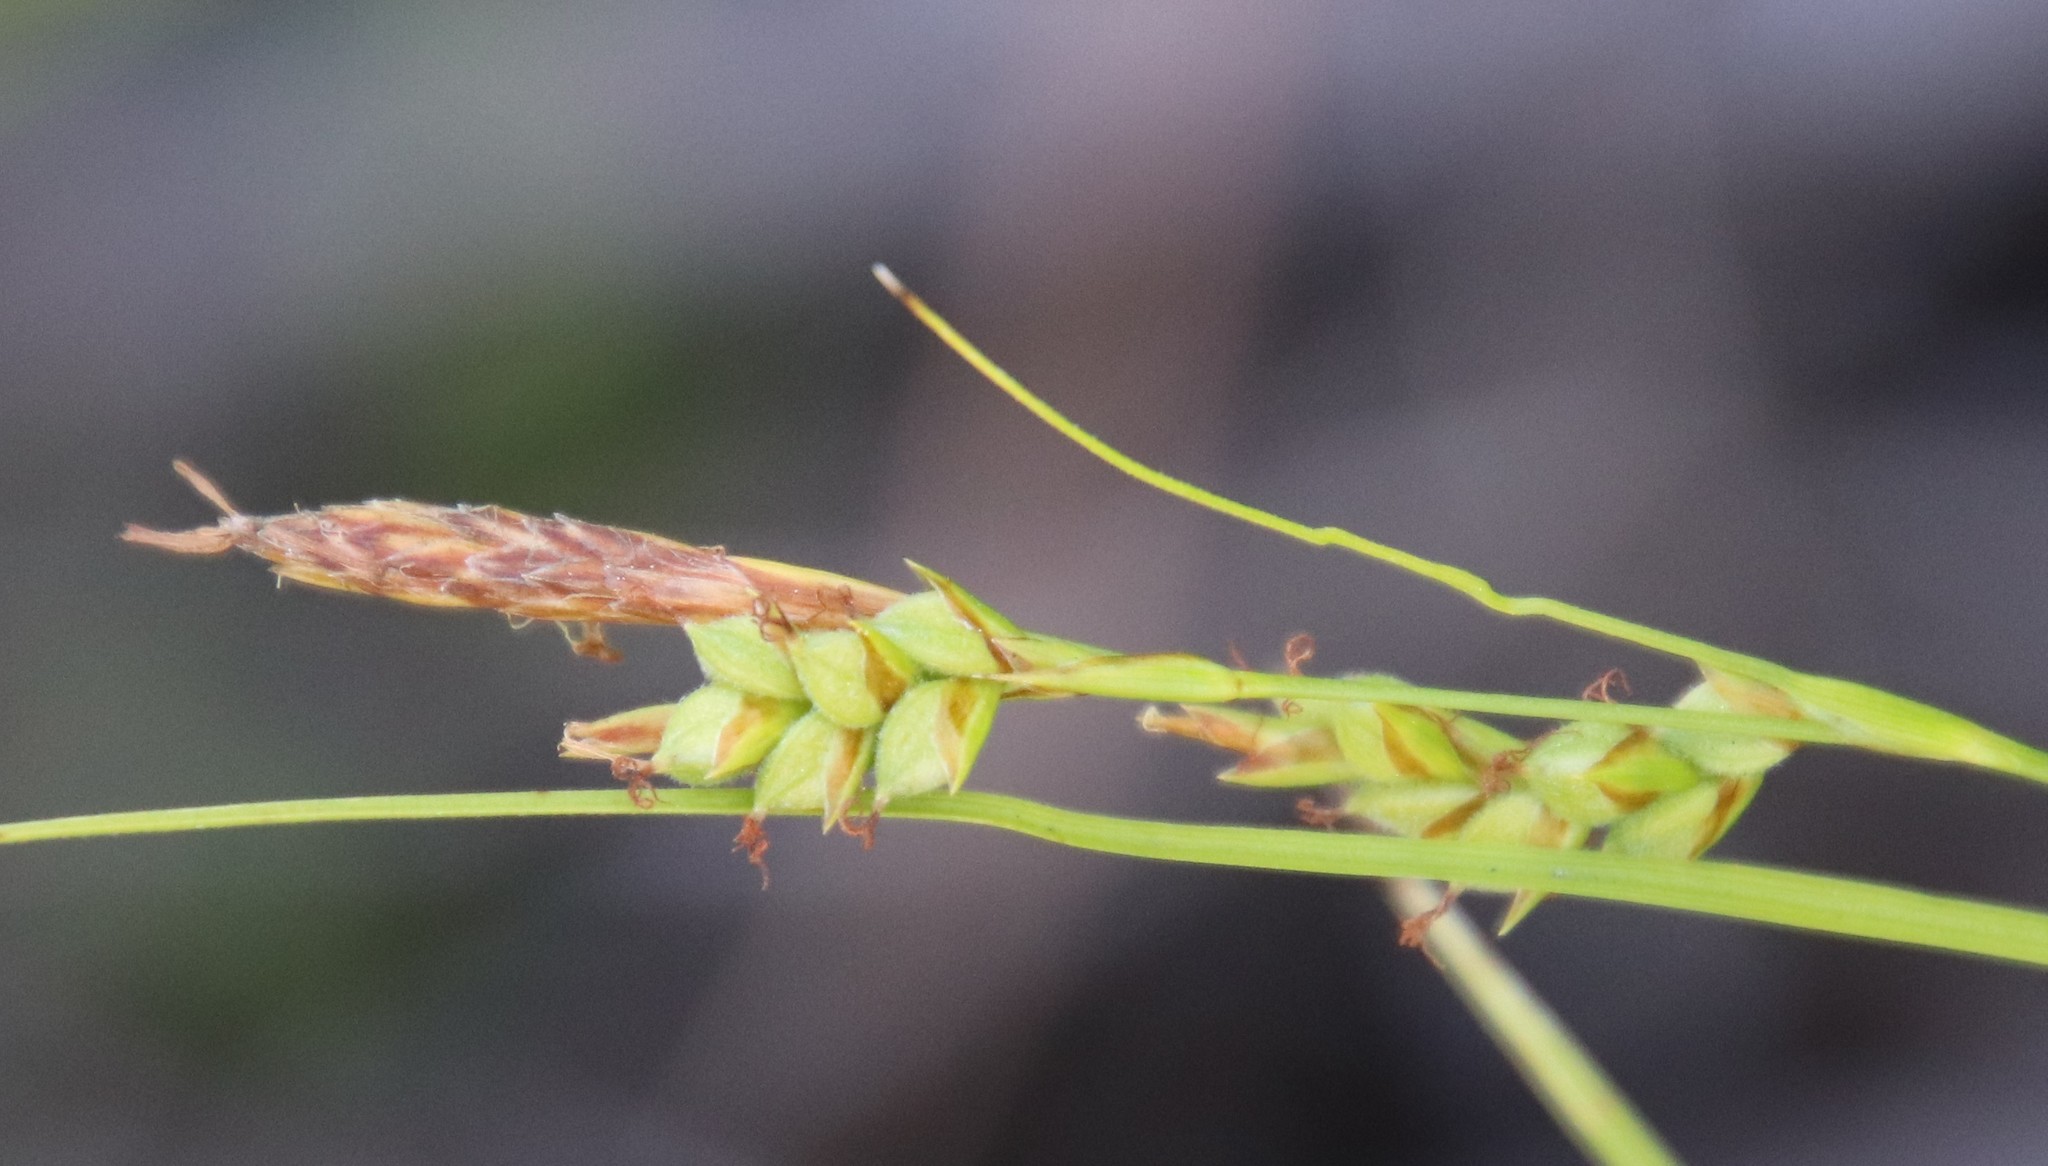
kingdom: Plantae
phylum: Tracheophyta
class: Liliopsida
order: Poales
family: Cyperaceae
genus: Carex
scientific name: Carex triquetra
